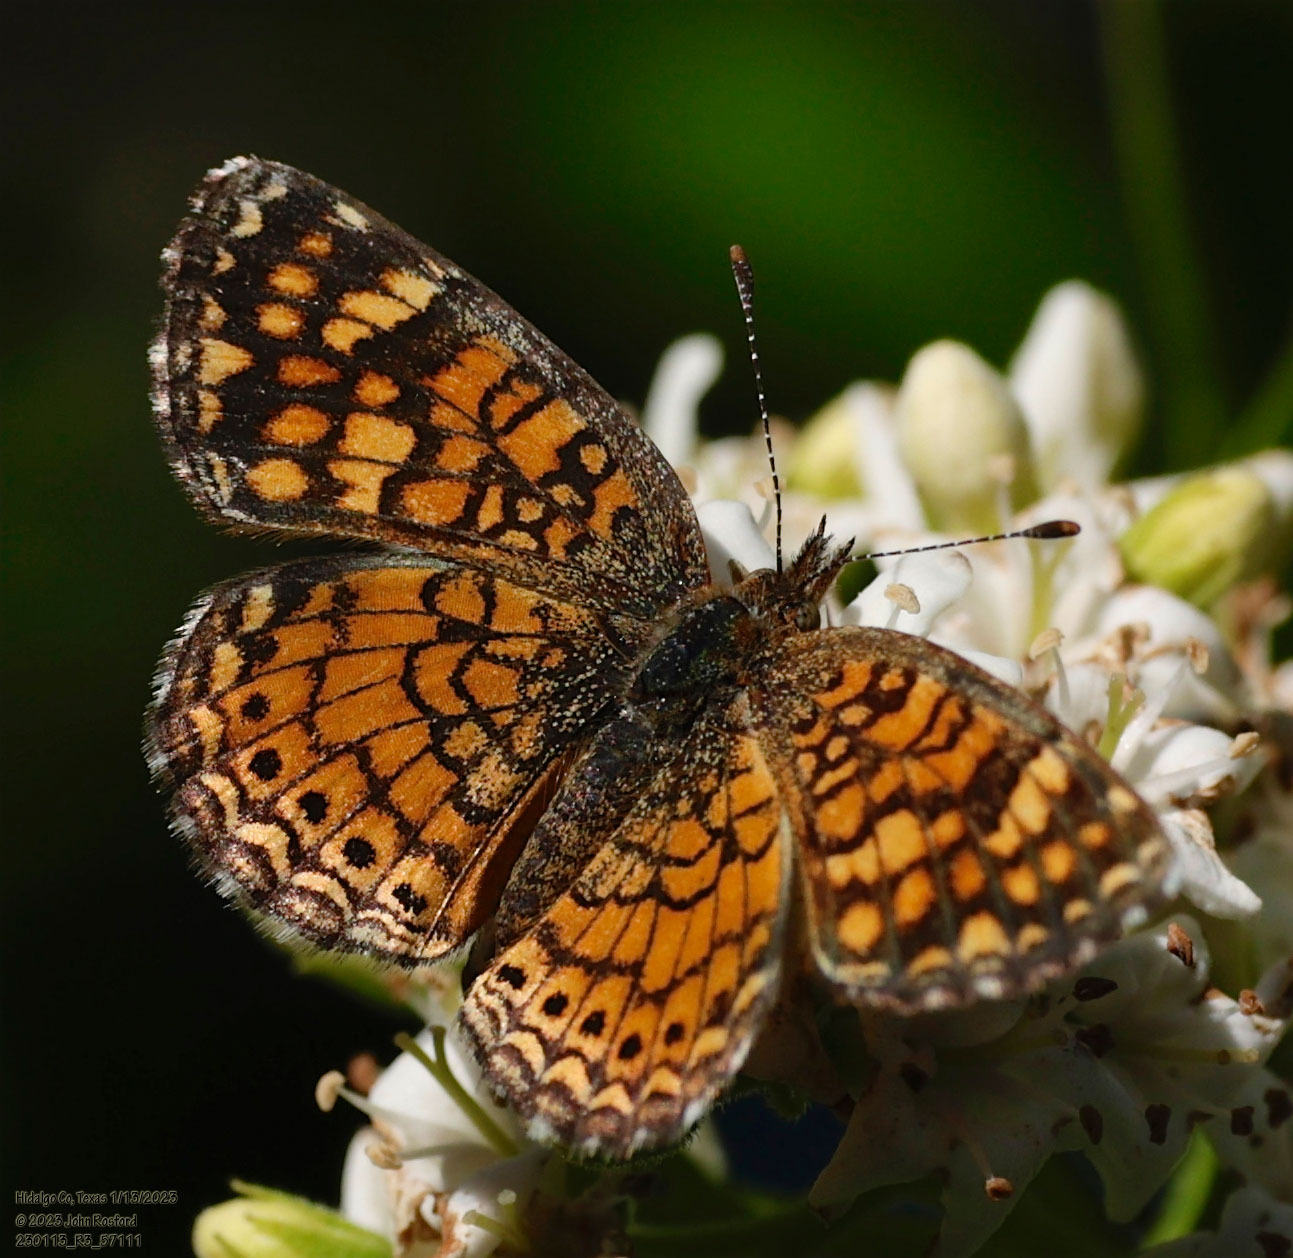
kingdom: Animalia
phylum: Arthropoda
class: Insecta
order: Lepidoptera
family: Nymphalidae
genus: Phyciodes
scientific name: Phyciodes vesta
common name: Vesta crescent
